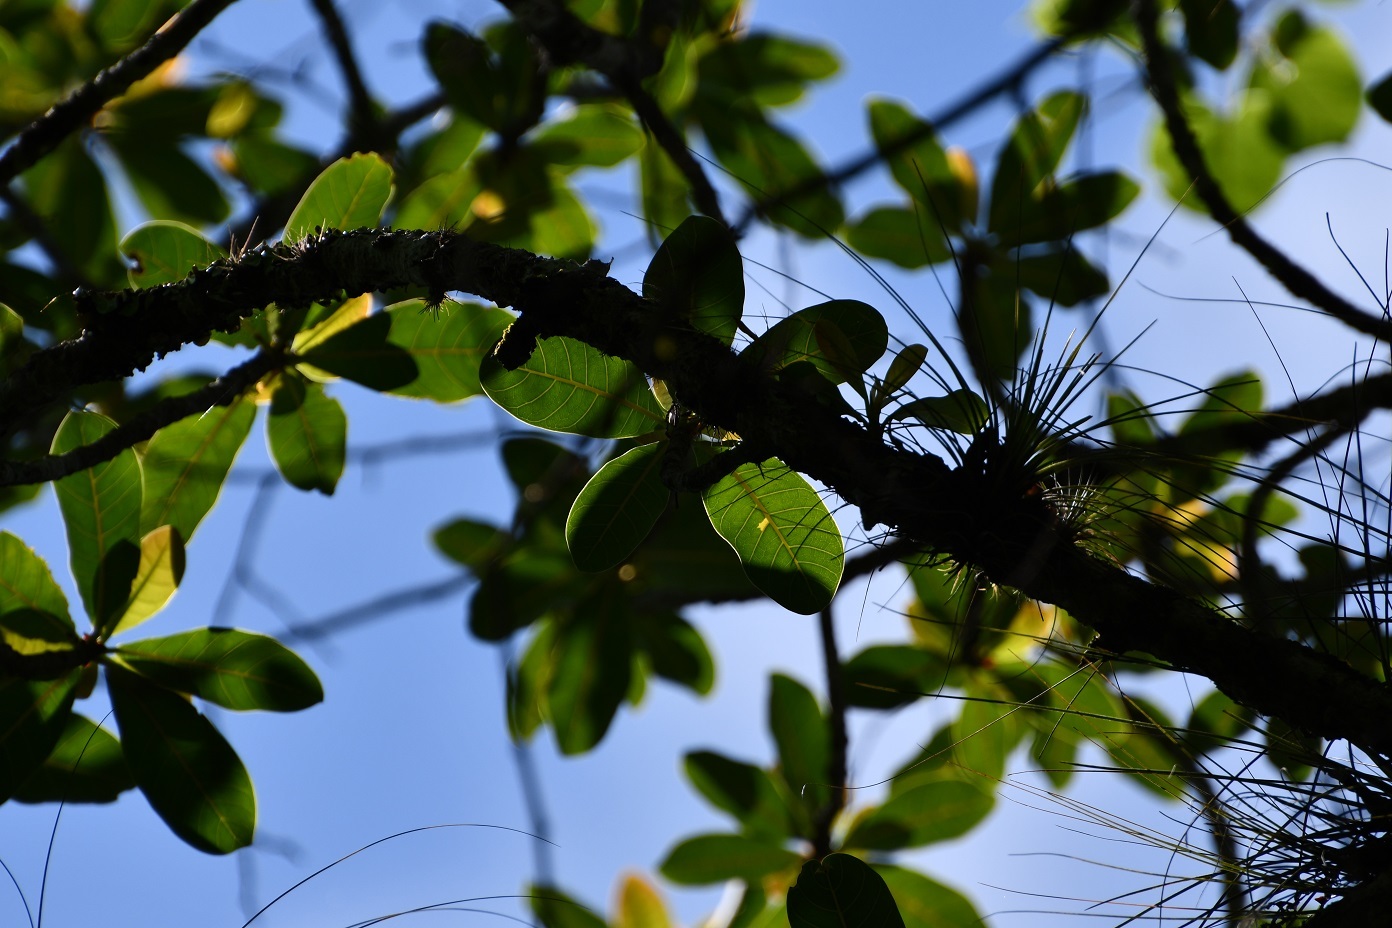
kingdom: Plantae
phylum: Tracheophyta
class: Magnoliopsida
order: Rosales
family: Moraceae
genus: Ficus
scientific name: Ficus obtusifolia
